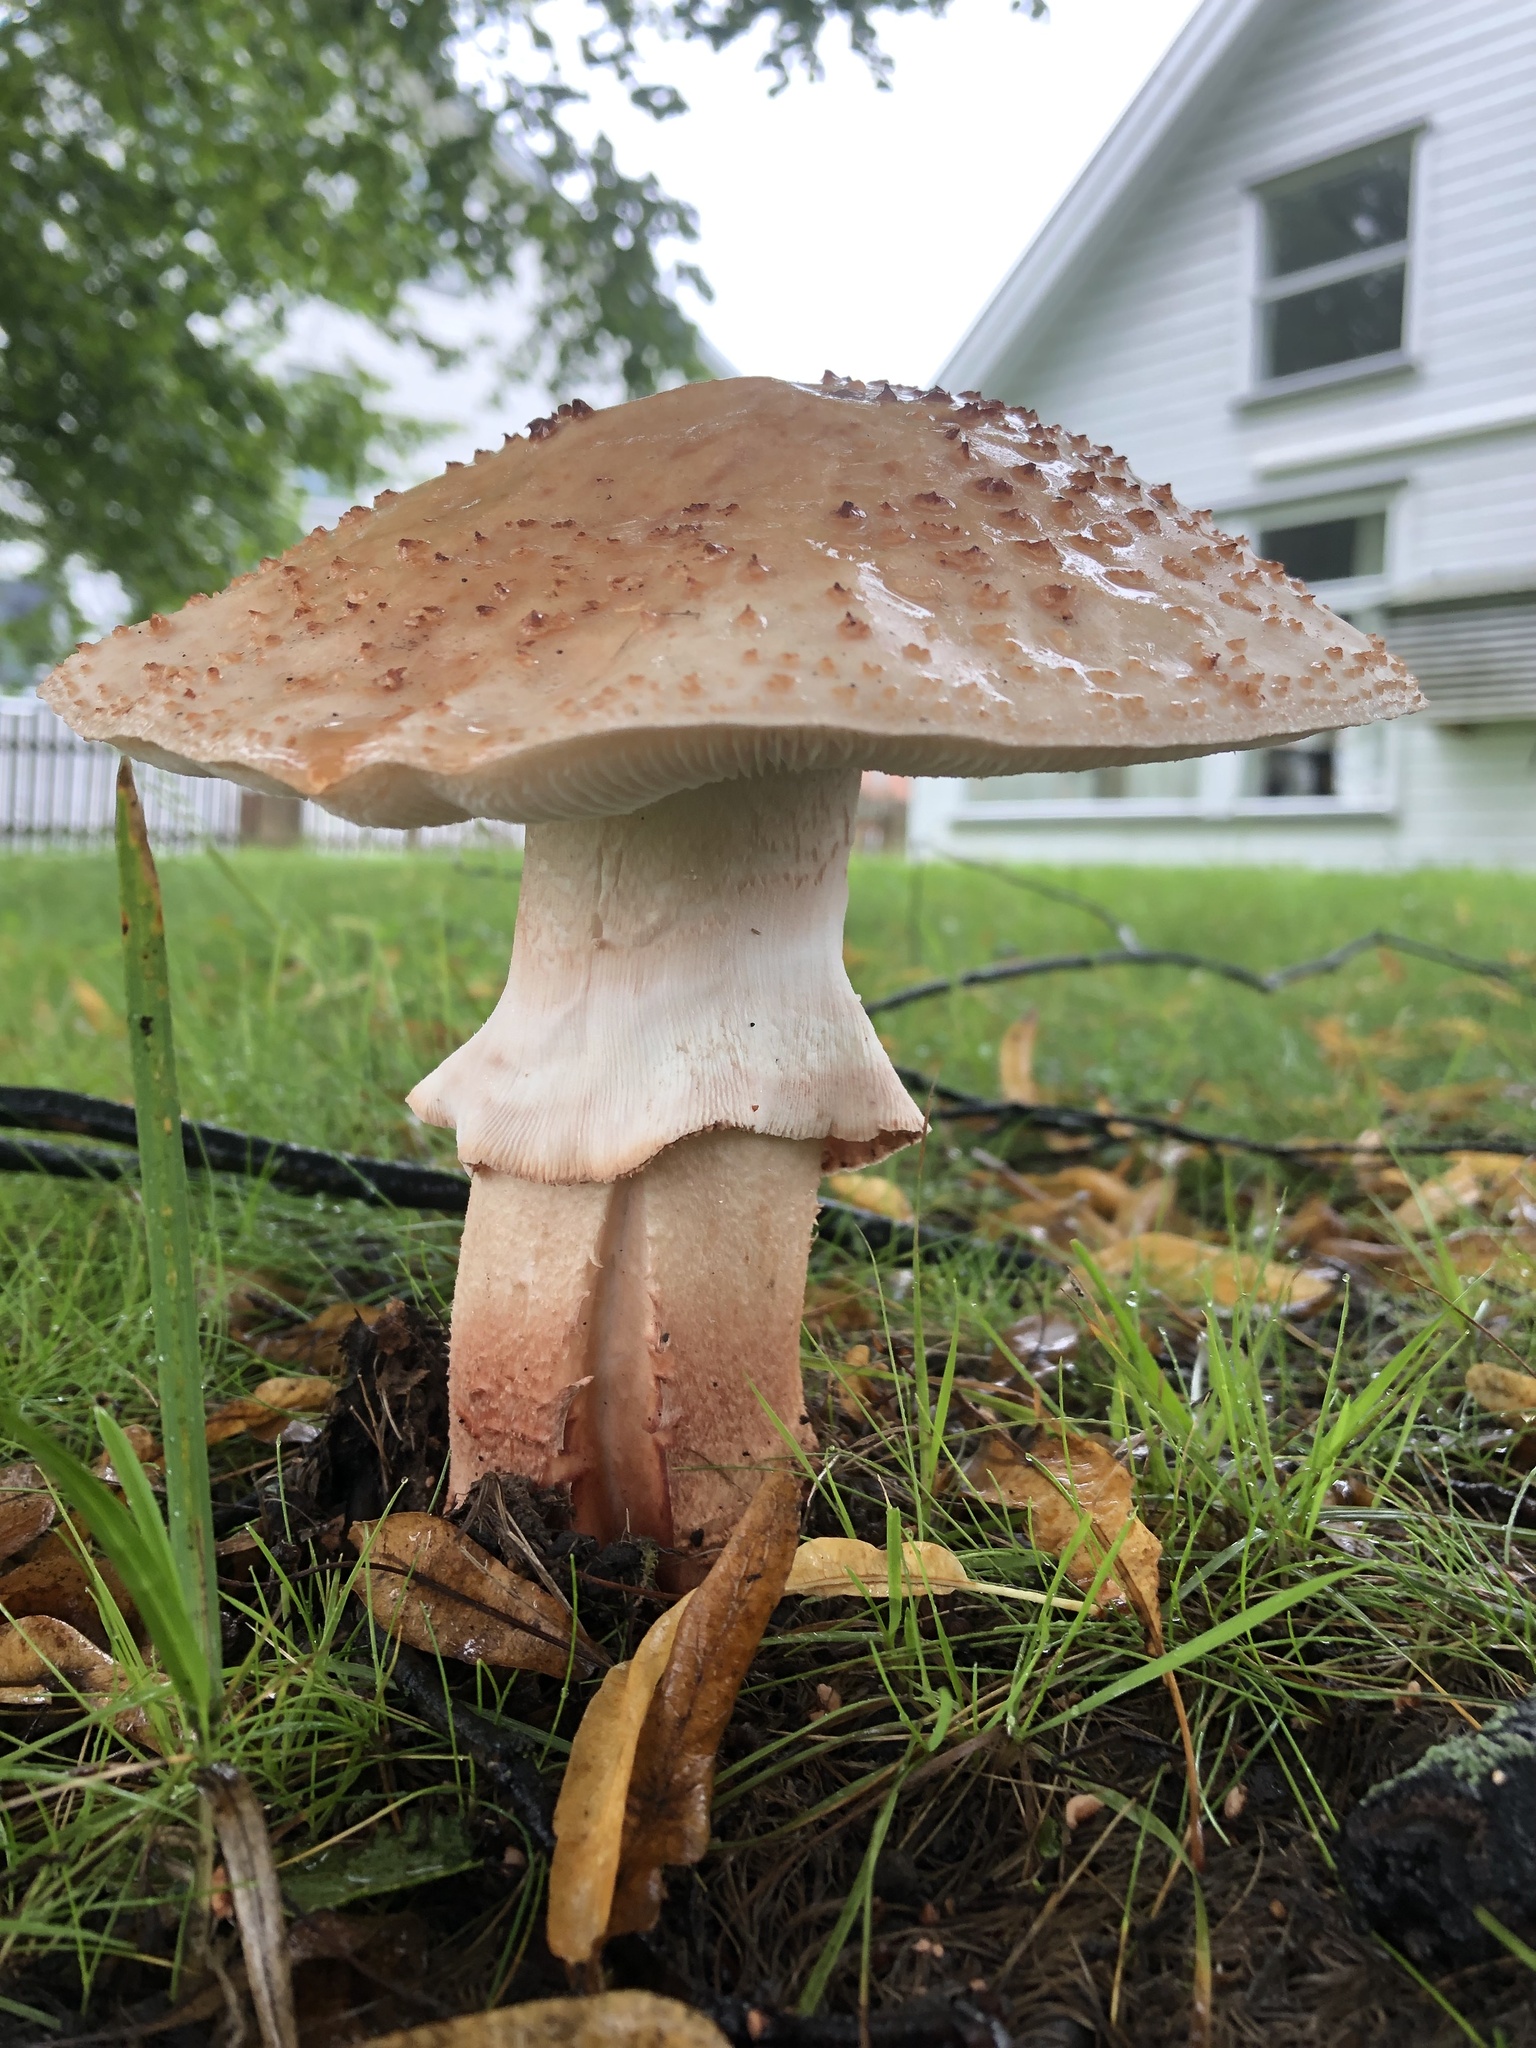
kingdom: Fungi
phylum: Basidiomycota
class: Agaricomycetes
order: Agaricales
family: Amanitaceae
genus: Amanita
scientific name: Amanita rubescens
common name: Blusher
